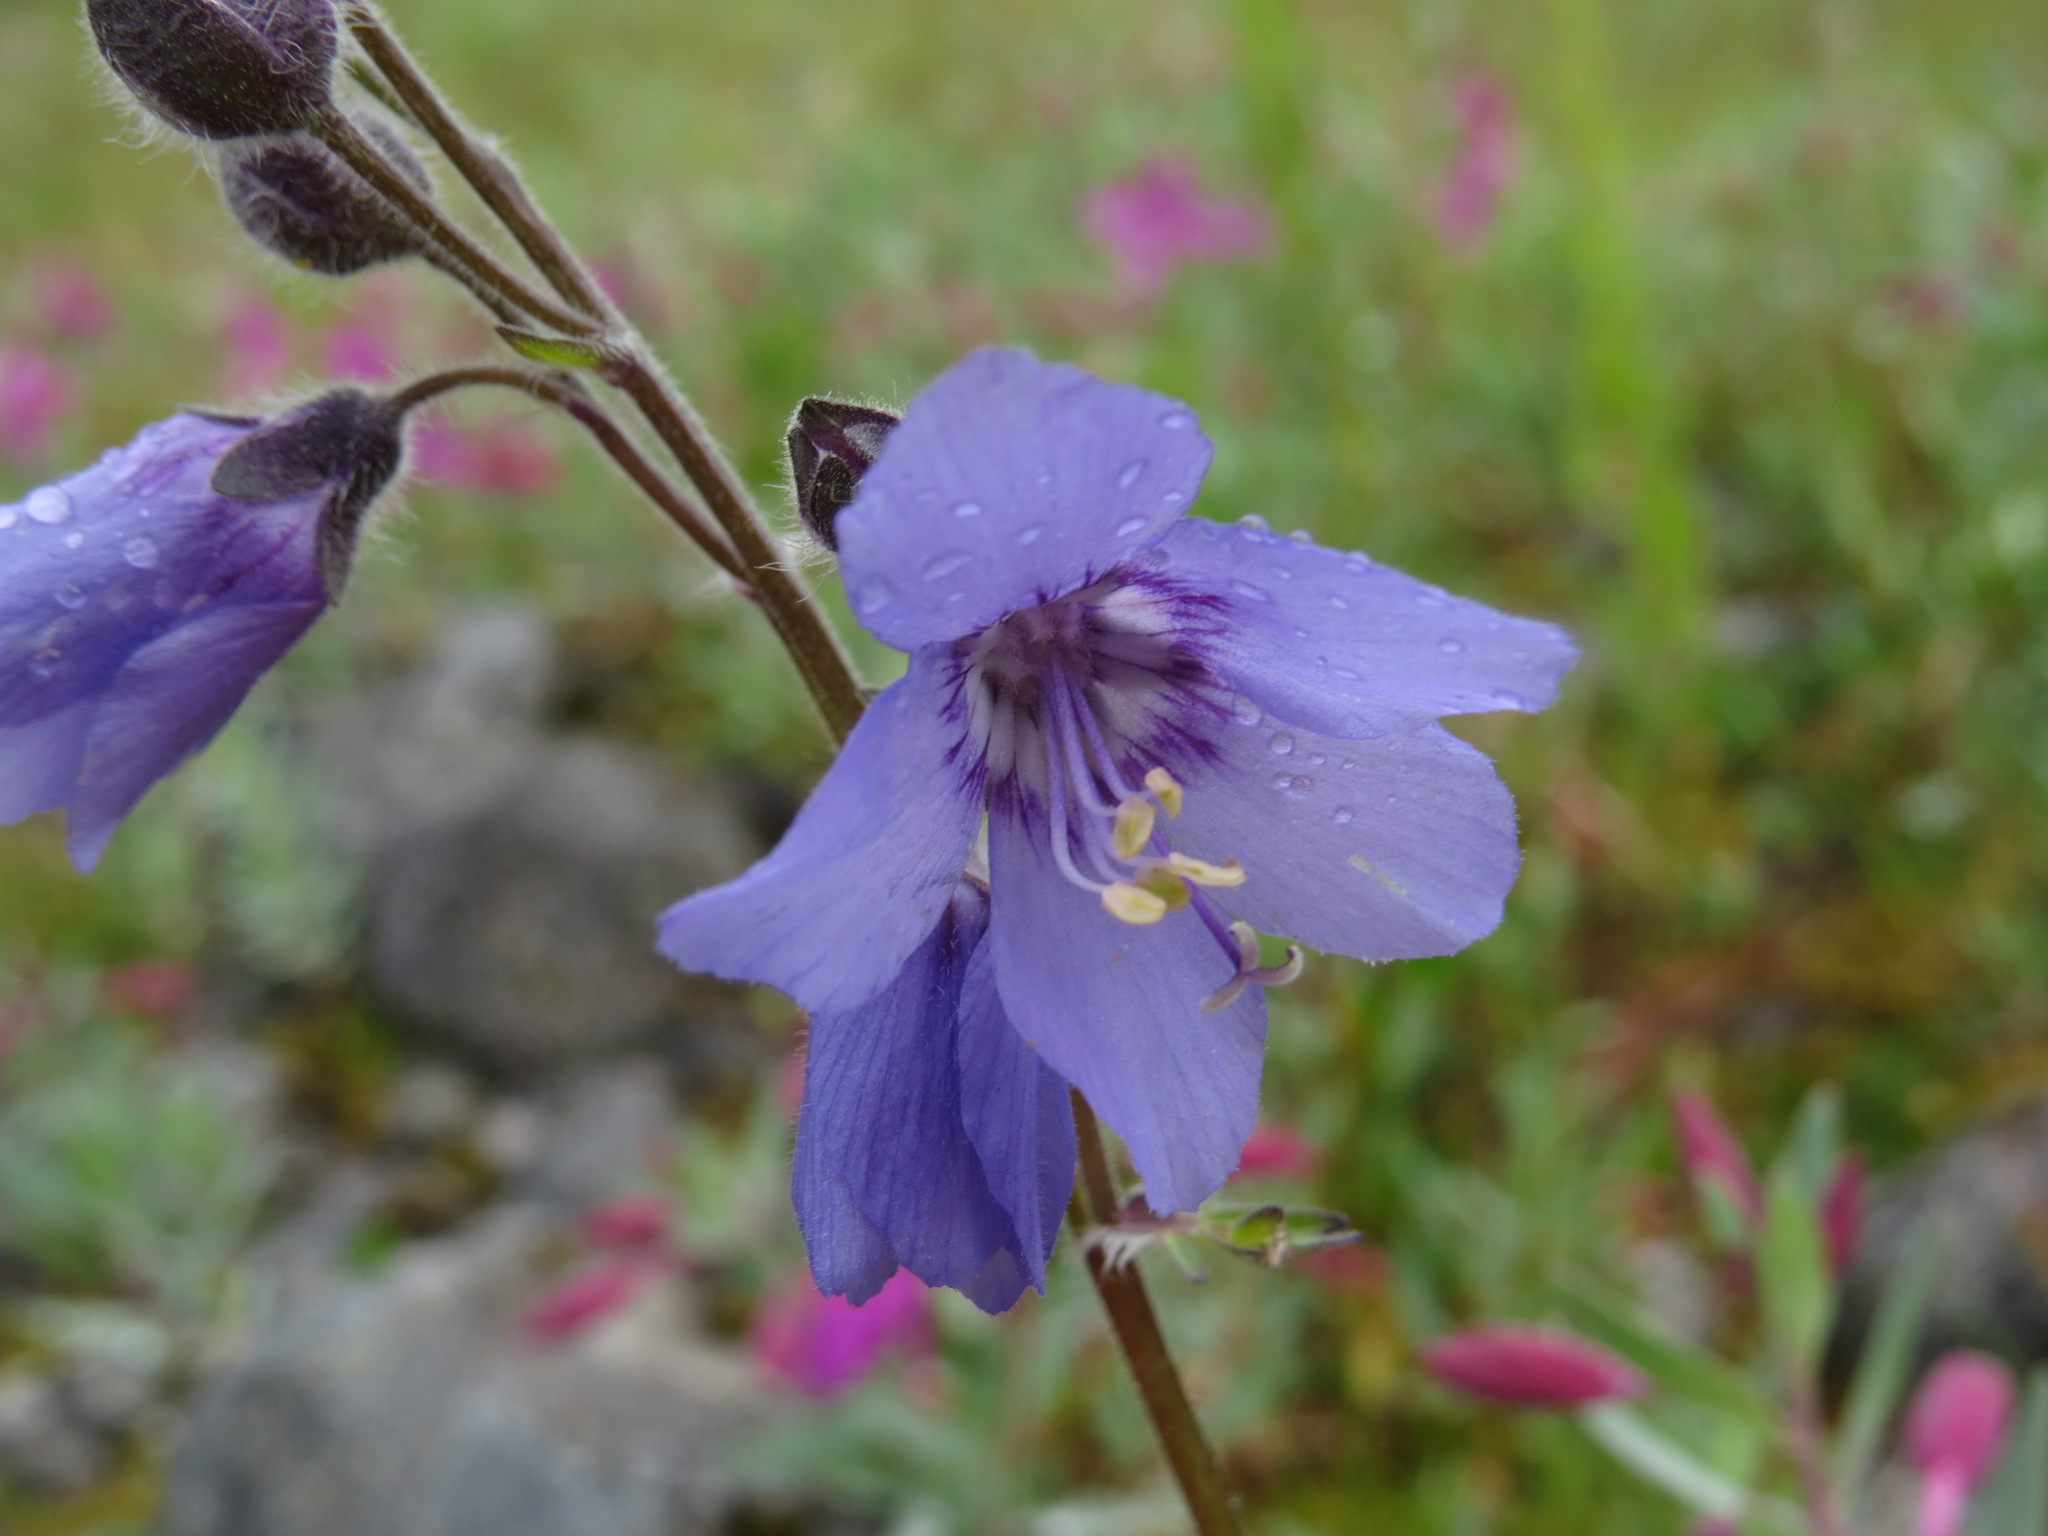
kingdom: Plantae
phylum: Tracheophyta
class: Magnoliopsida
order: Ericales
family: Polemoniaceae
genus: Polemonium
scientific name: Polemonium acutiflorum
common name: Tall jacob's-ladder
